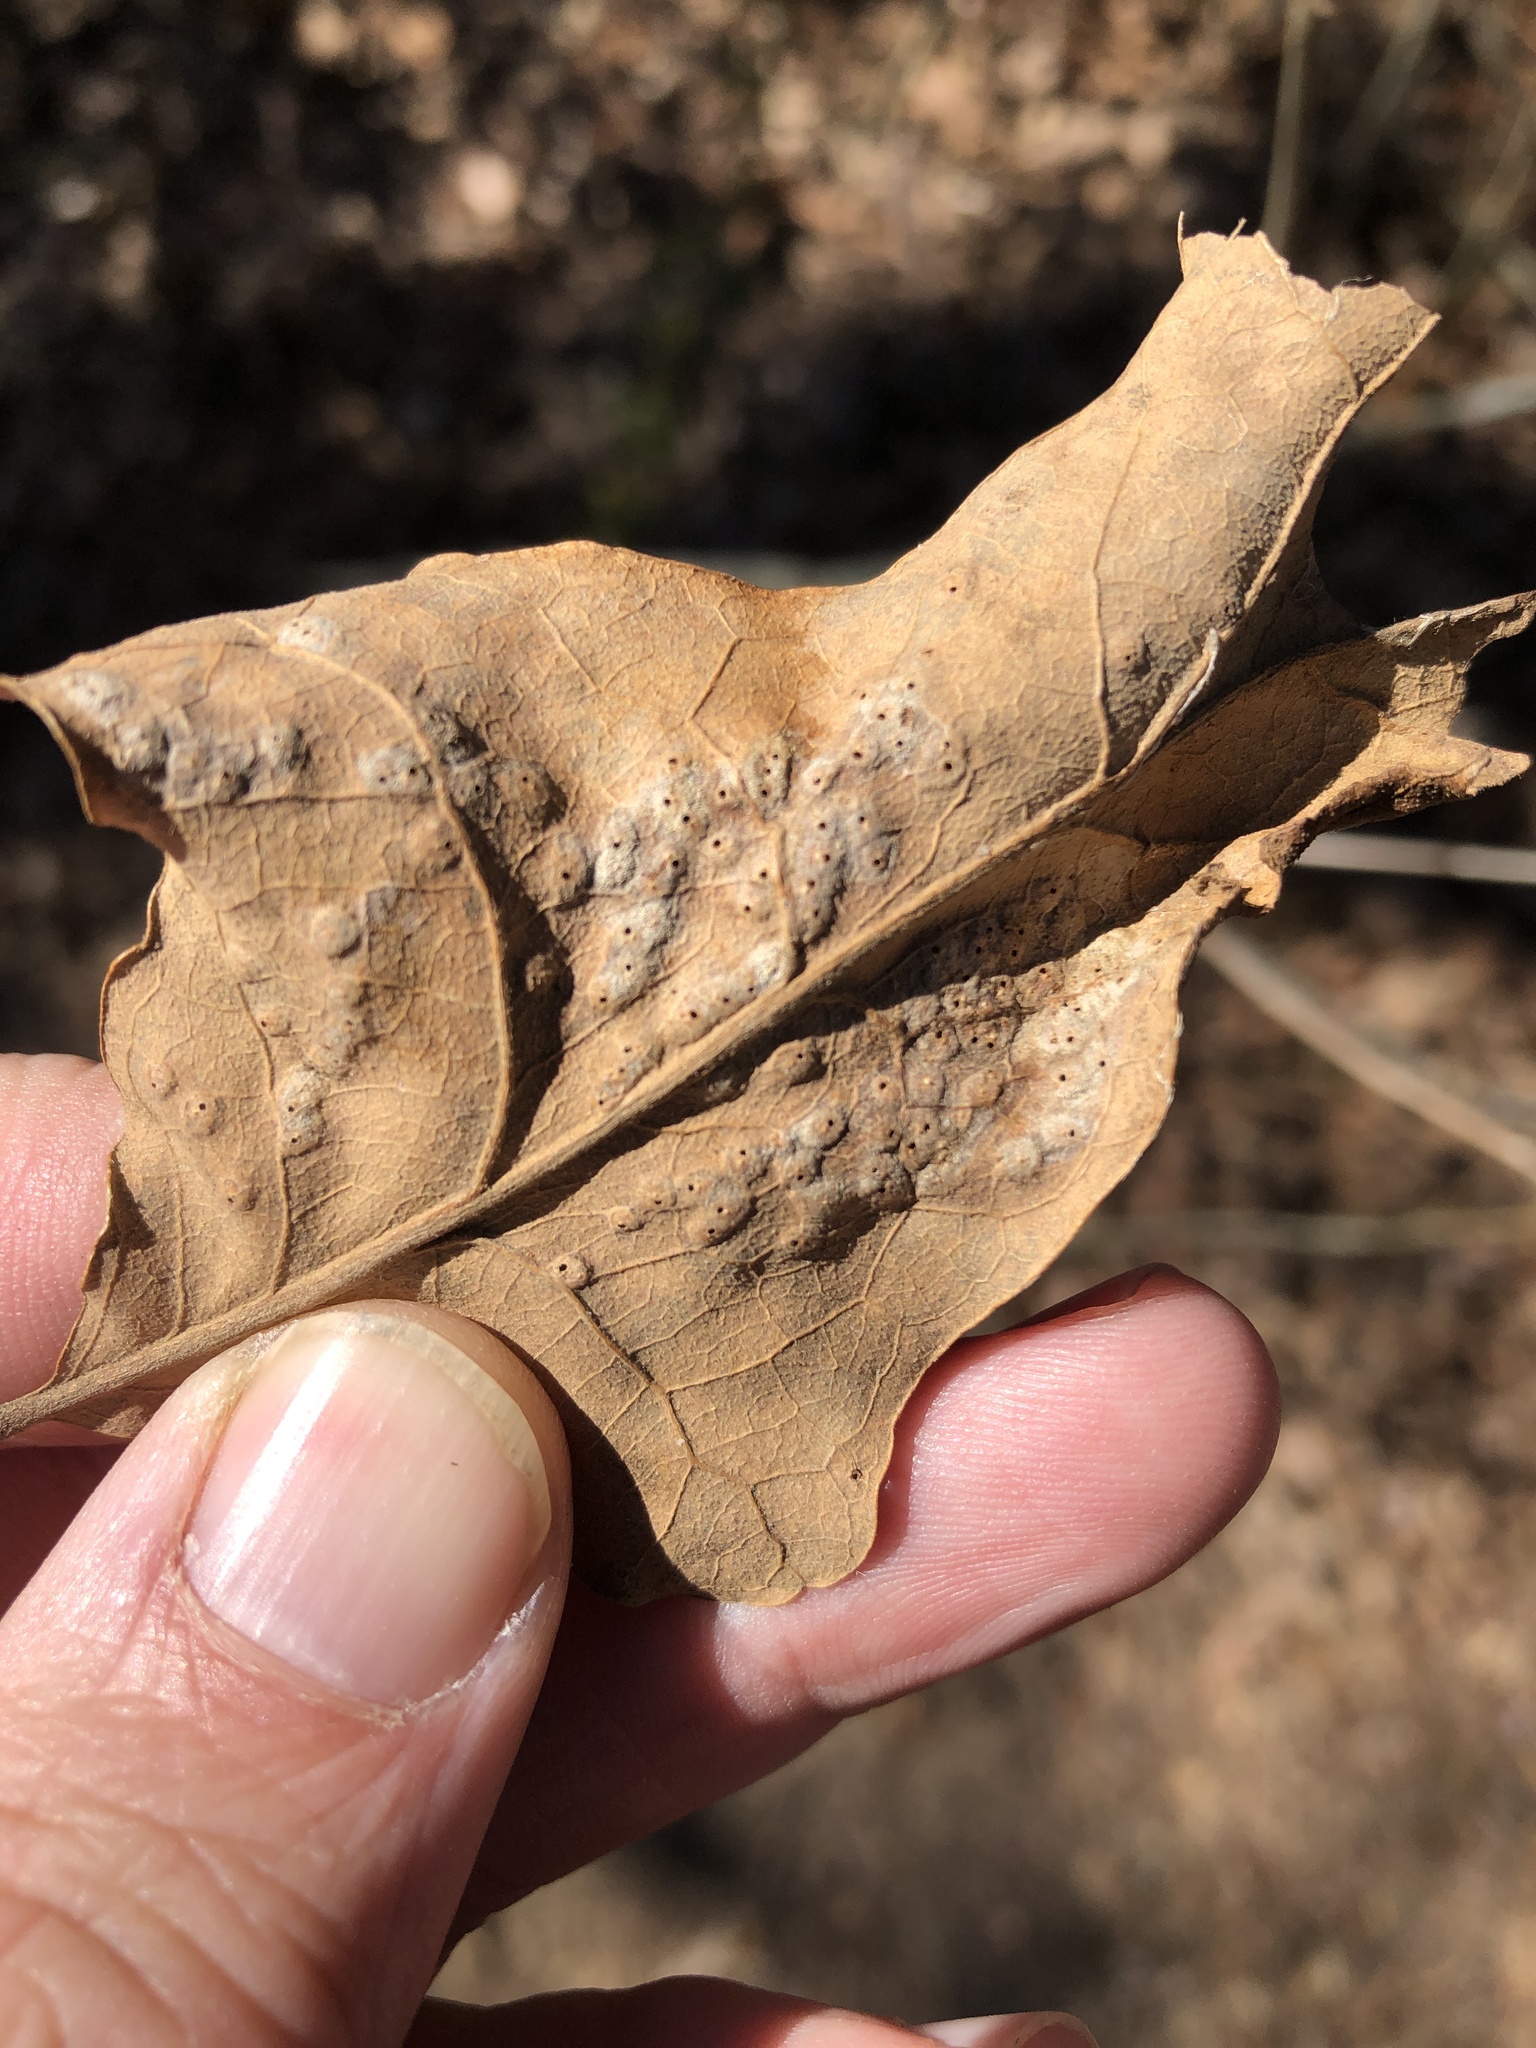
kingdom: Animalia
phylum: Arthropoda
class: Insecta
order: Hymenoptera
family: Cynipidae
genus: Neuroterus
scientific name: Neuroterus niger
